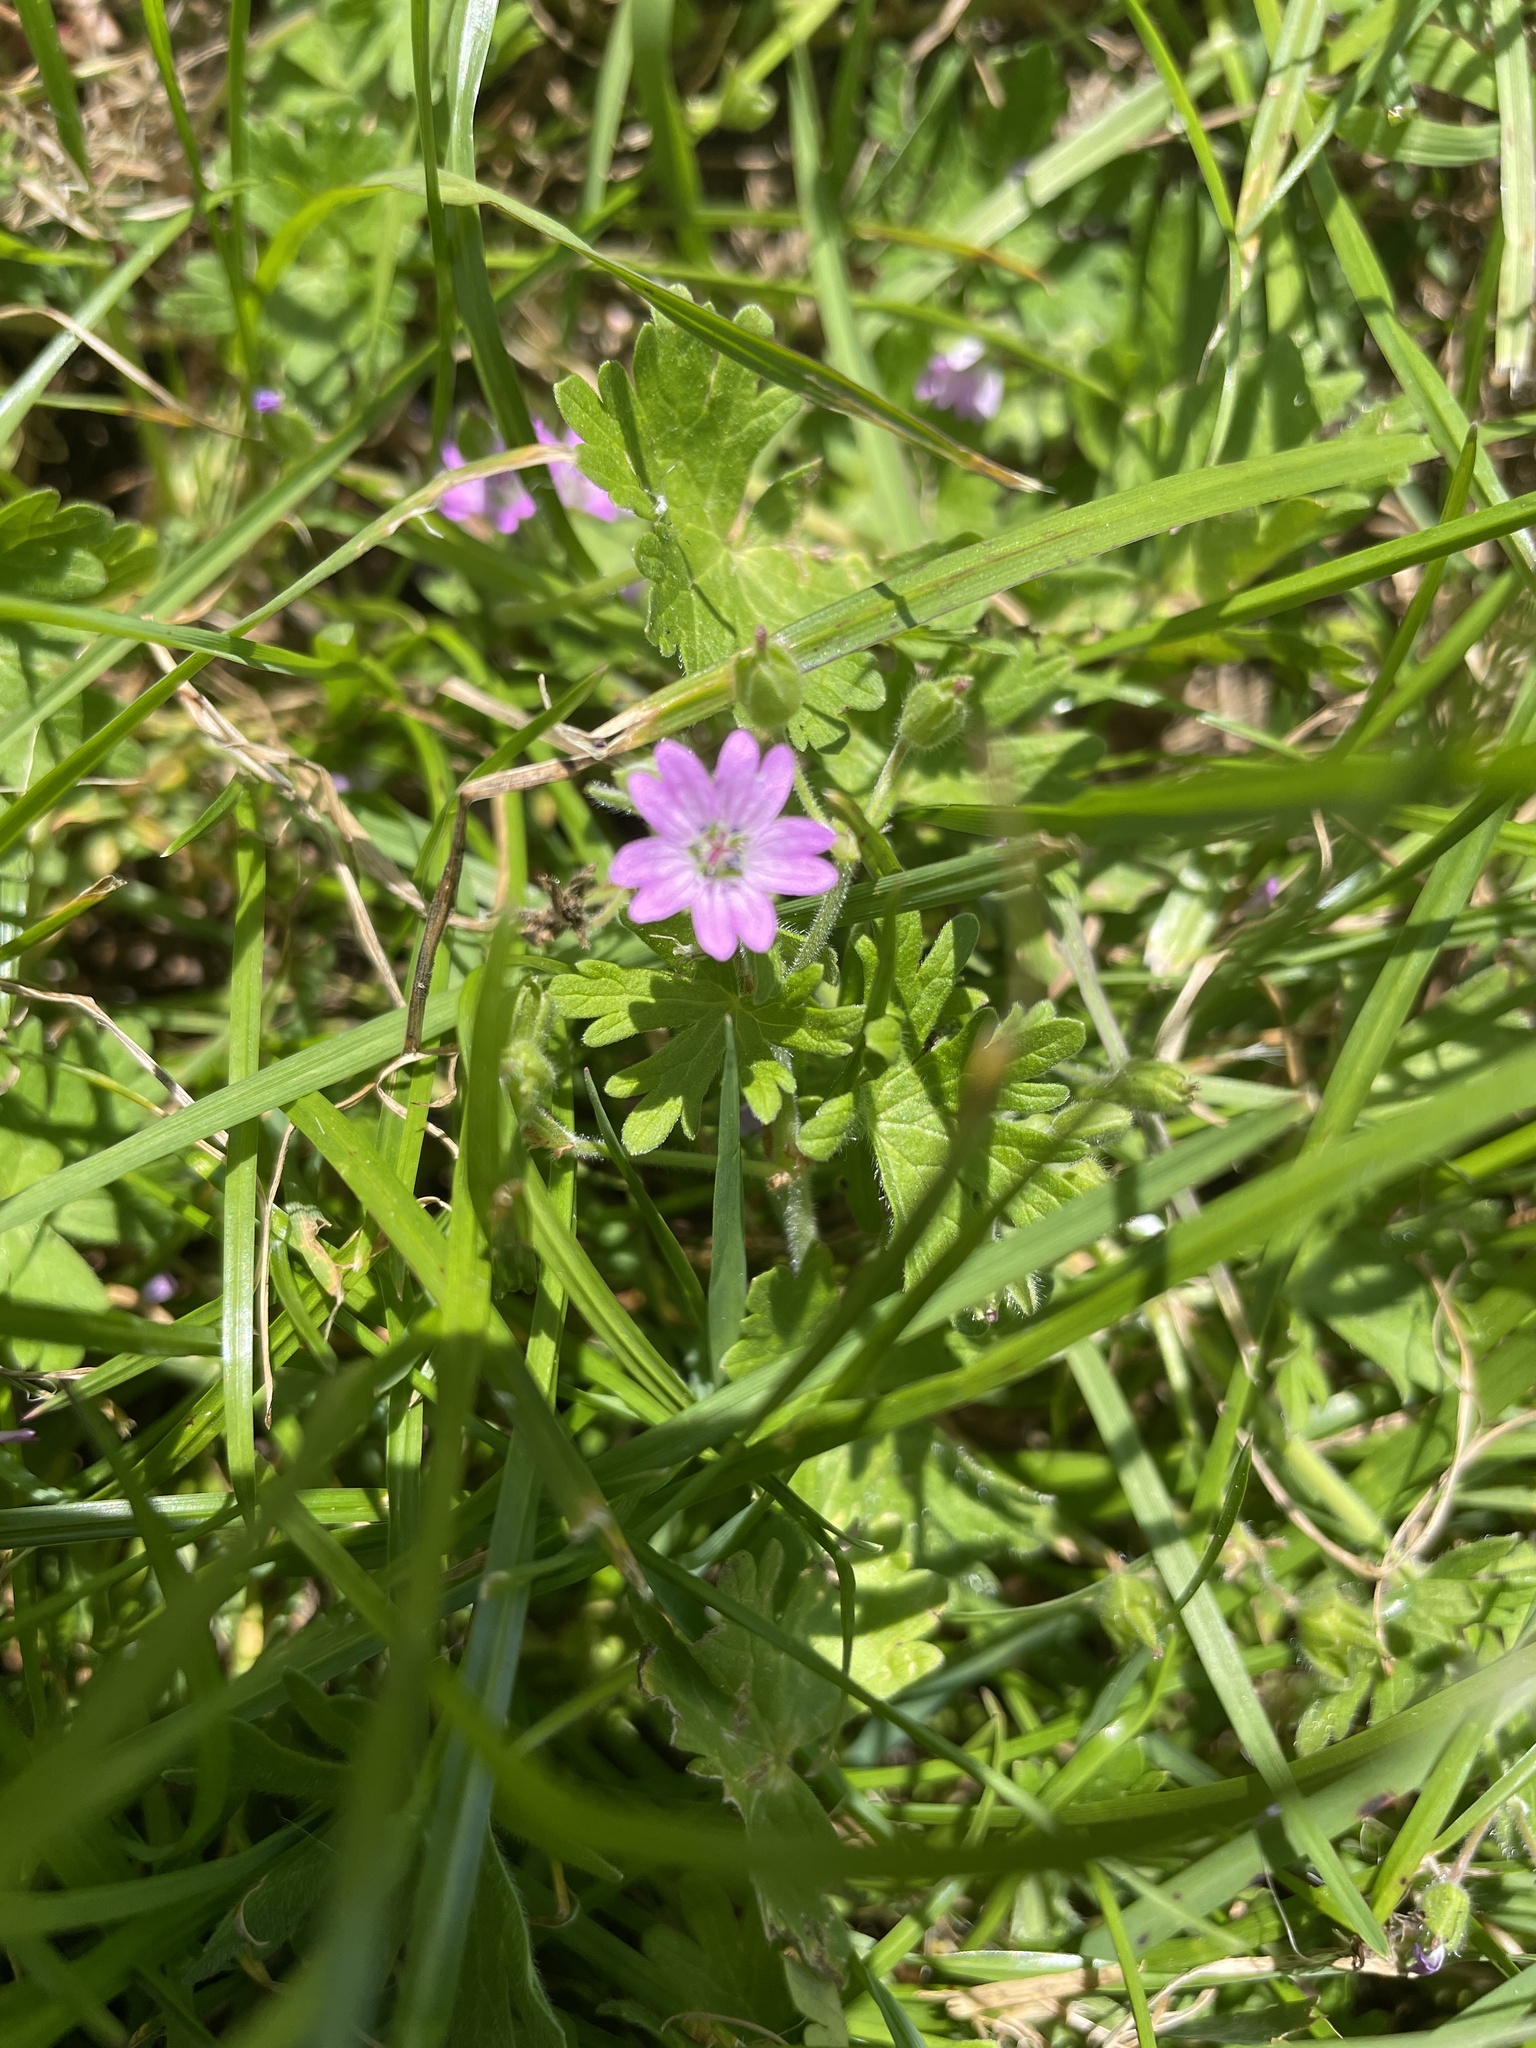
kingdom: Plantae
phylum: Tracheophyta
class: Magnoliopsida
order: Geraniales
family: Geraniaceae
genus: Geranium
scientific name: Geranium molle
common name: Dove's-foot crane's-bill
